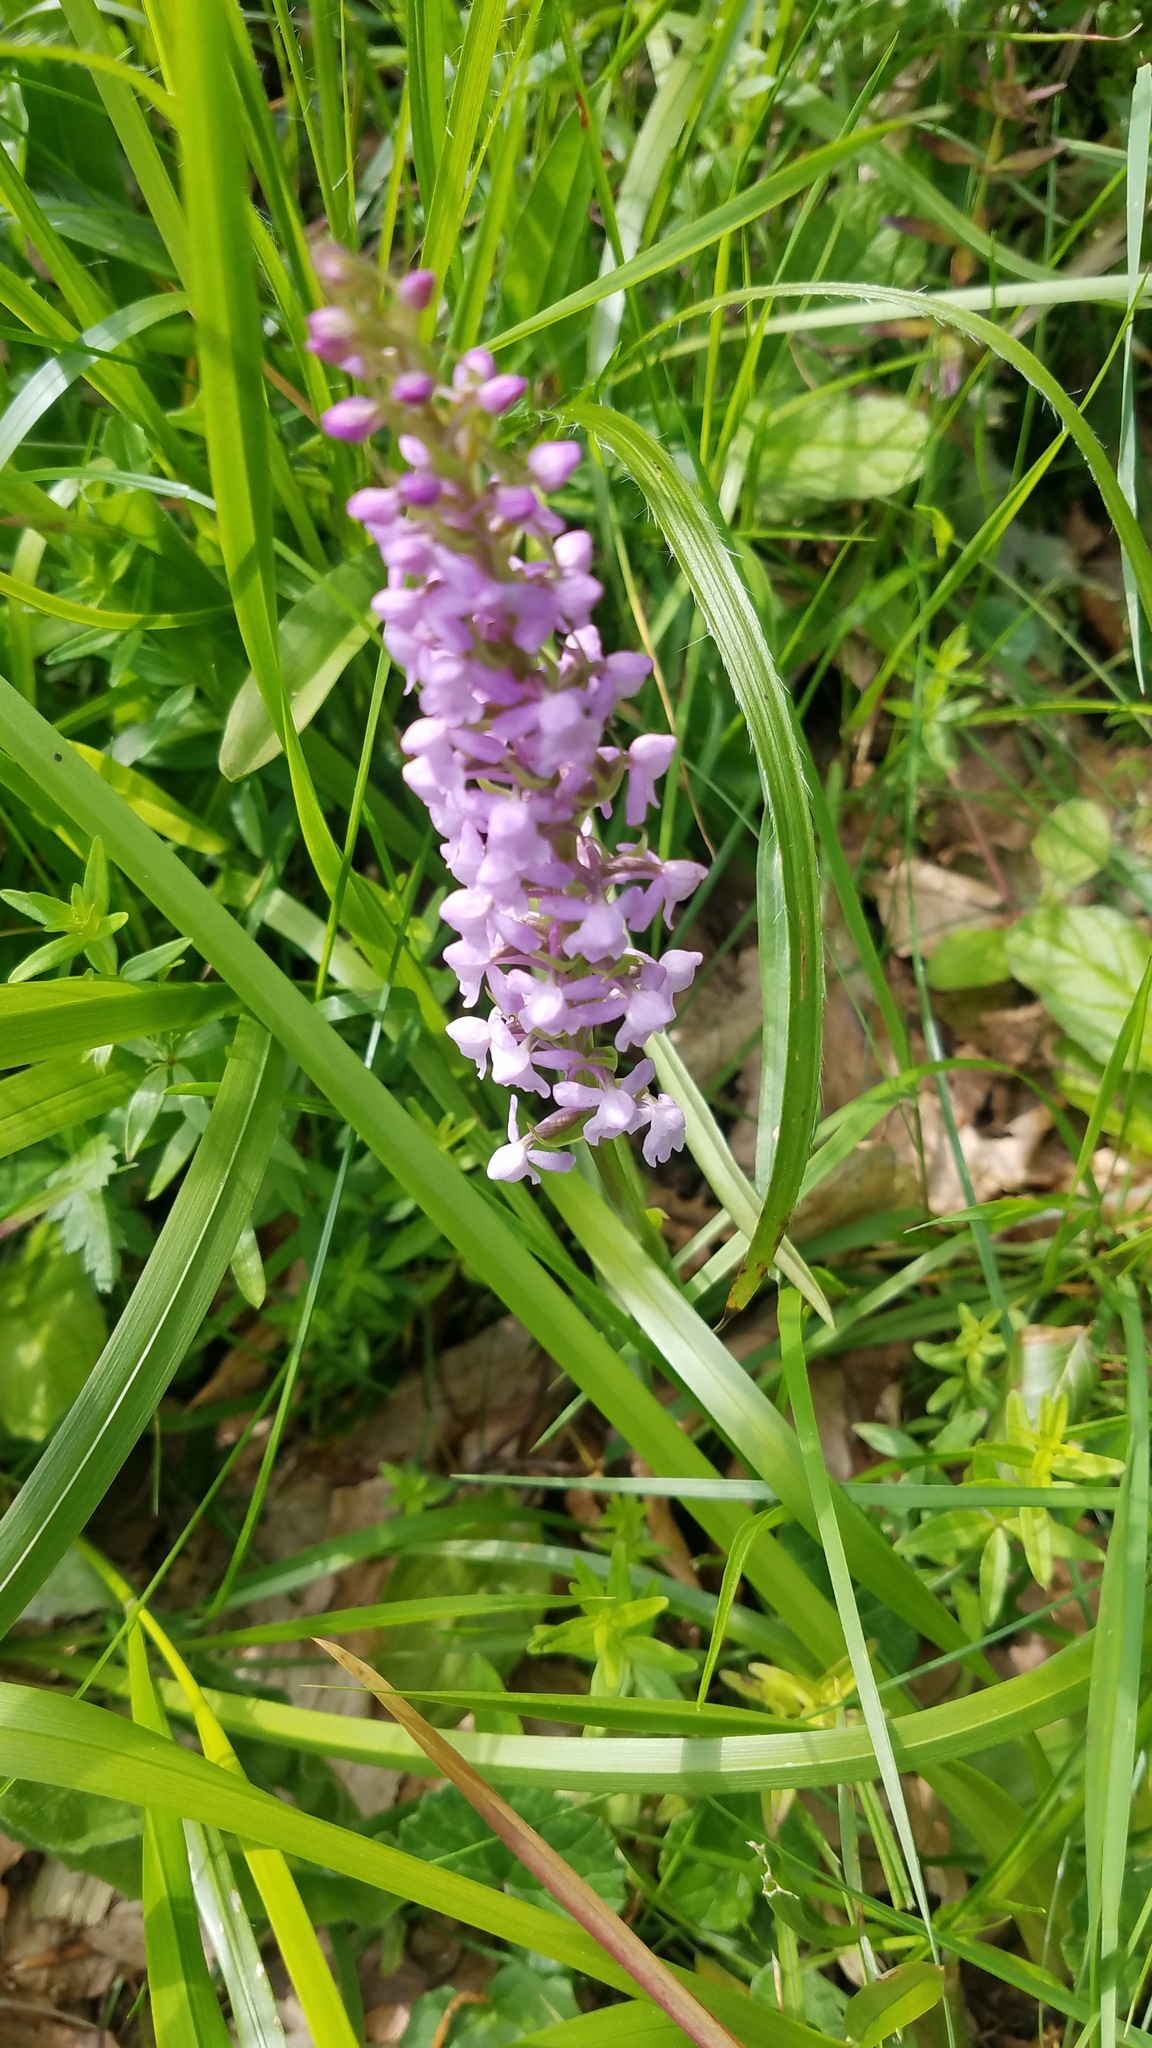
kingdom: Plantae
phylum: Tracheophyta
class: Liliopsida
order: Asparagales
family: Orchidaceae
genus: Gymnadenia
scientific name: Gymnadenia conopsea
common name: Fragrant orchid
